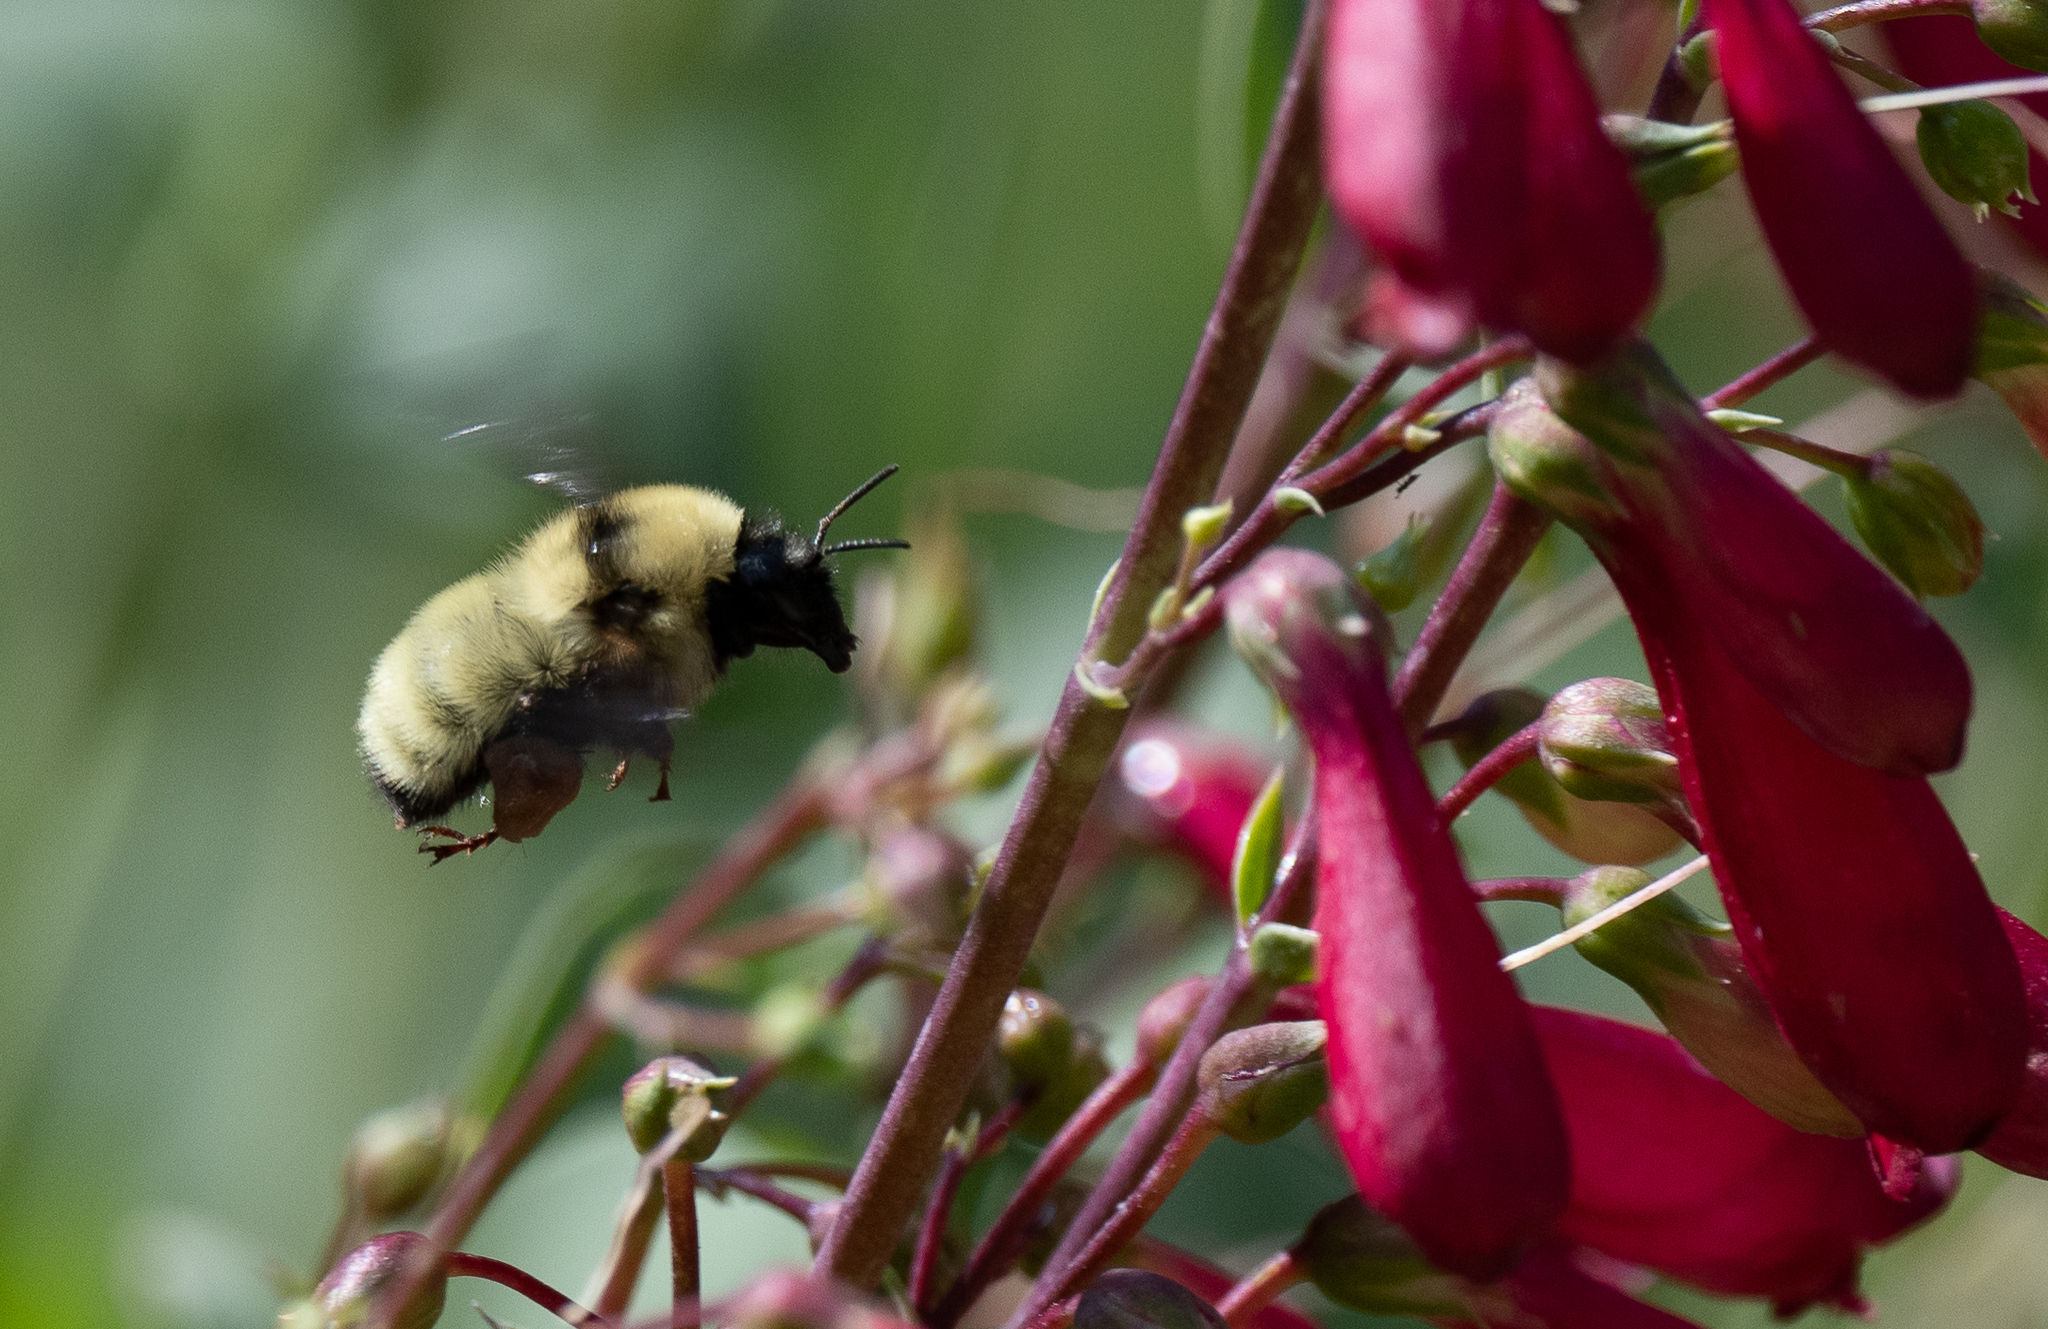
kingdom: Animalia
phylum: Arthropoda
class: Insecta
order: Hymenoptera
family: Apidae
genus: Bombus
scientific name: Bombus fervidus
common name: Yellow bumble bee
